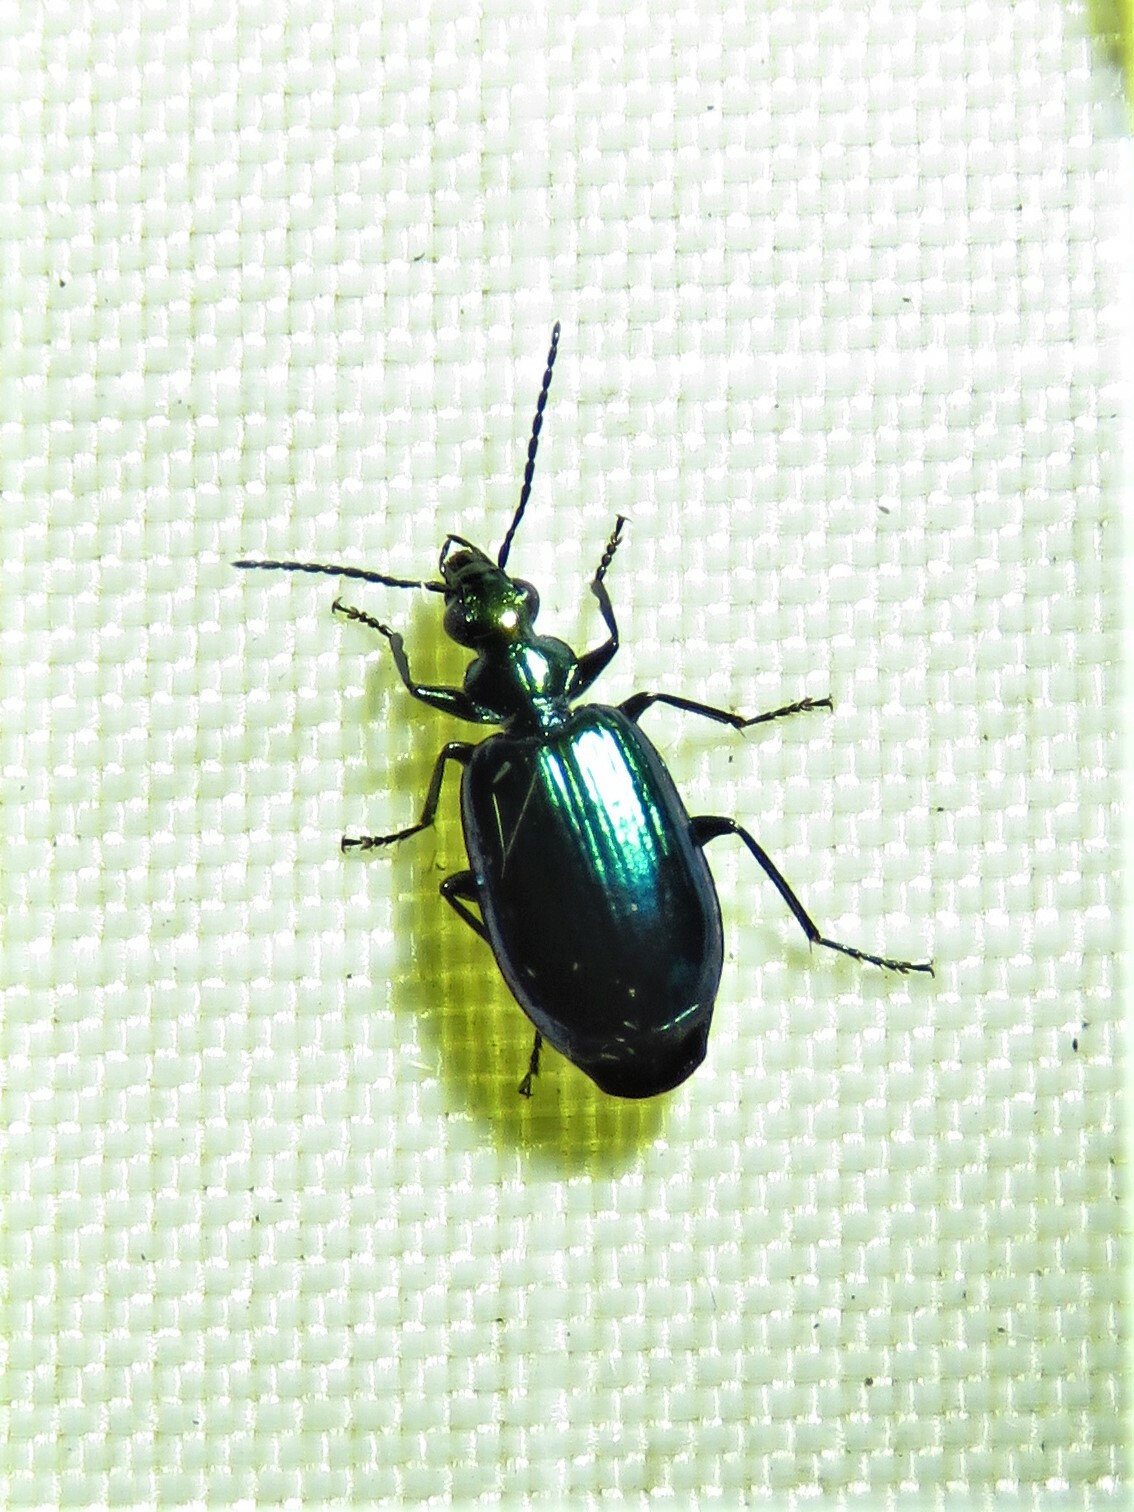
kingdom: Animalia
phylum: Arthropoda
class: Insecta
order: Coleoptera
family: Carabidae
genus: Lebia
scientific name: Lebia viridis
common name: Flower lebia beetle
